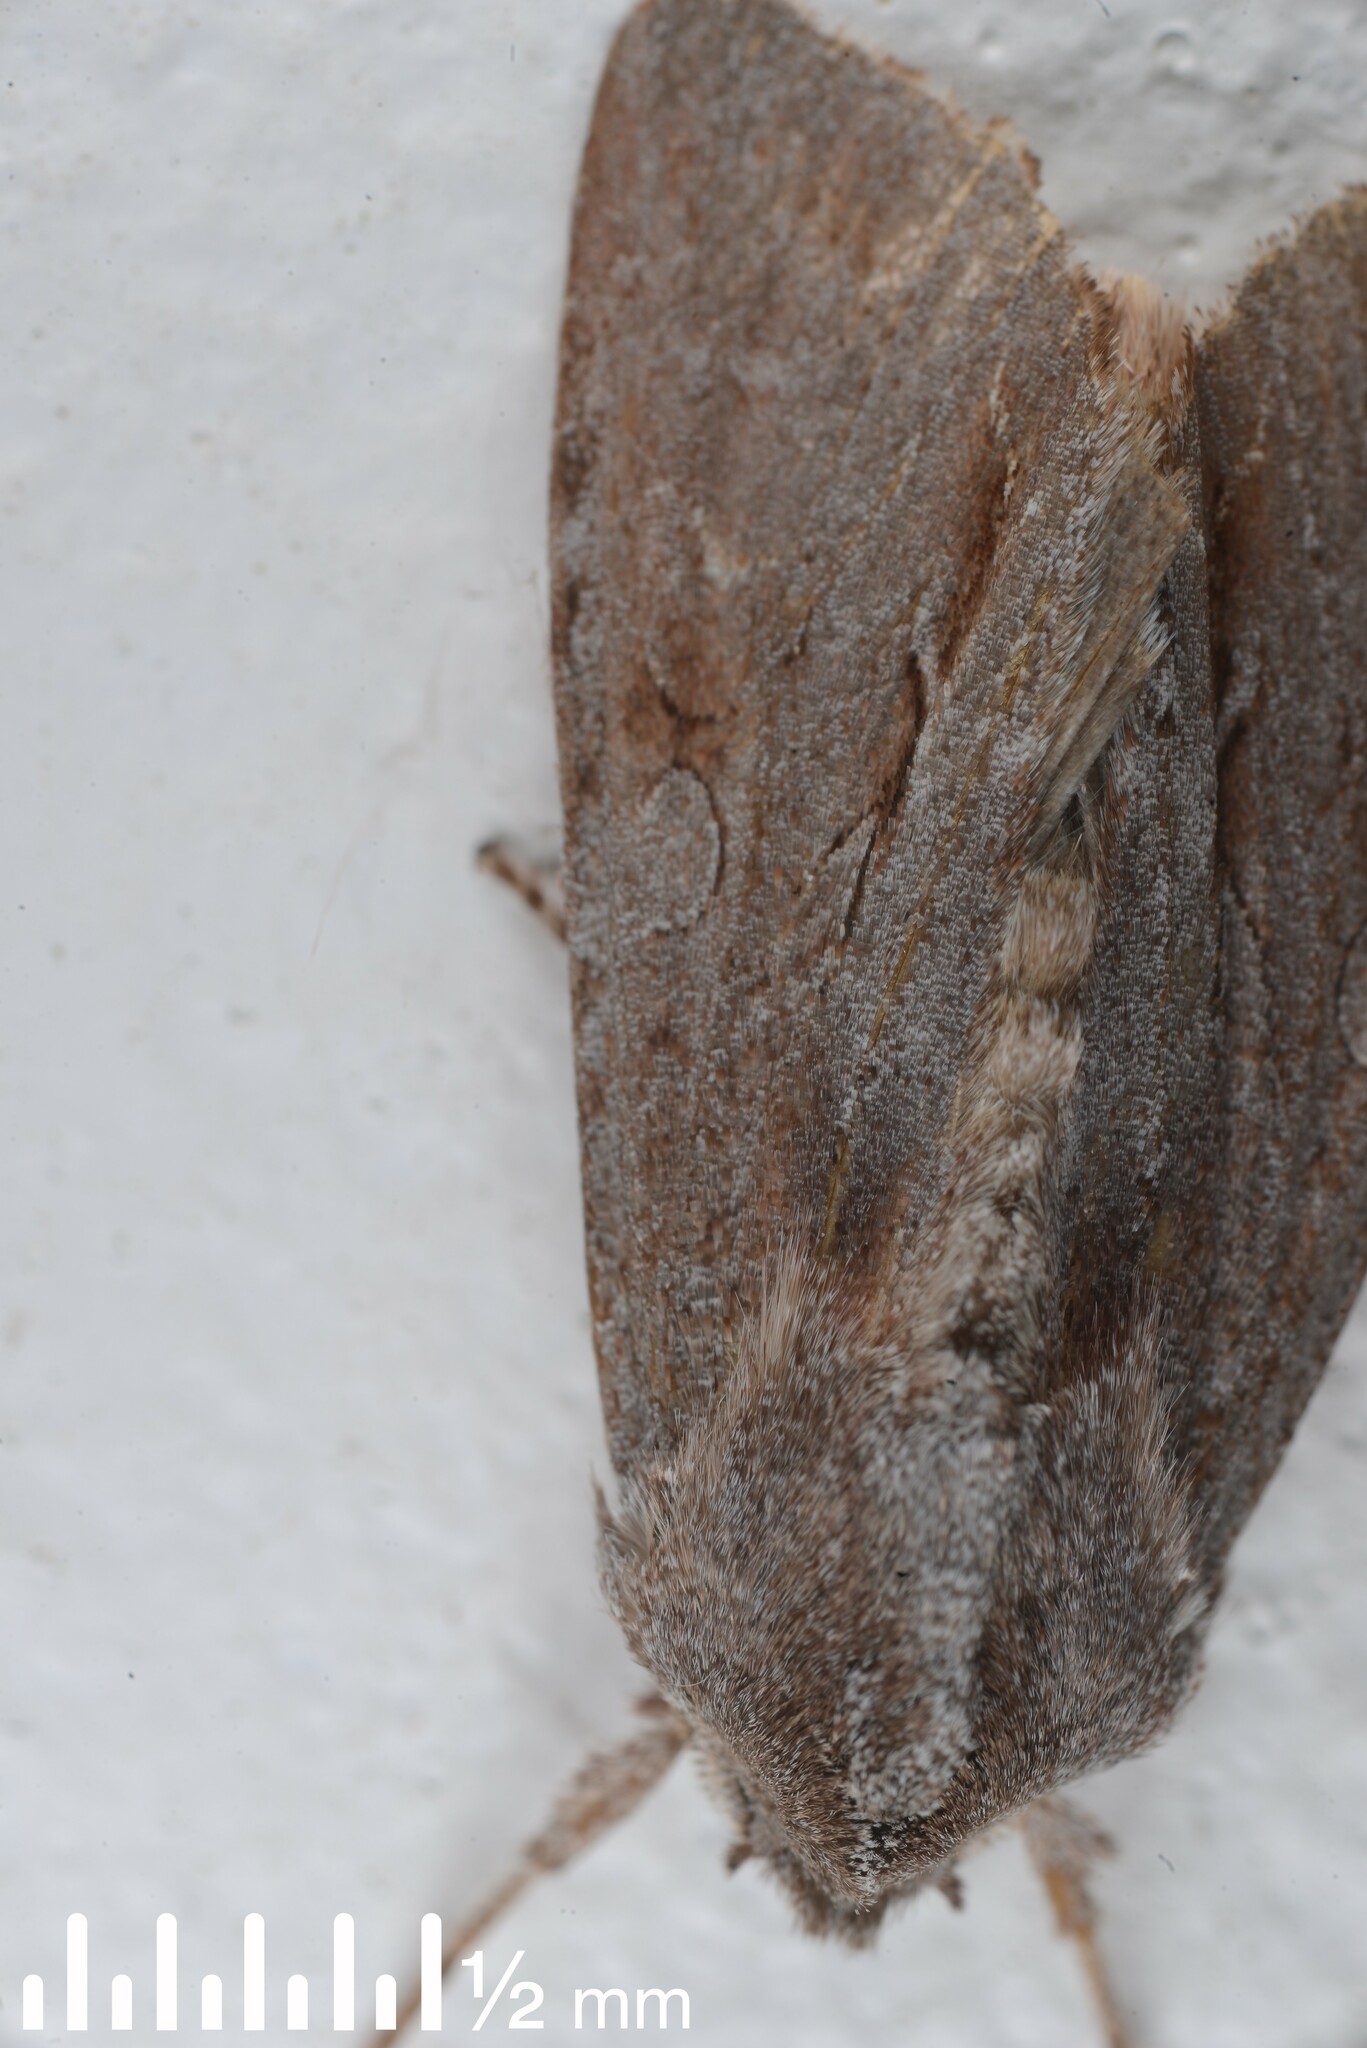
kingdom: Animalia
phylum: Arthropoda
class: Insecta
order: Lepidoptera
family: Noctuidae
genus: Ichneutica
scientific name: Ichneutica
